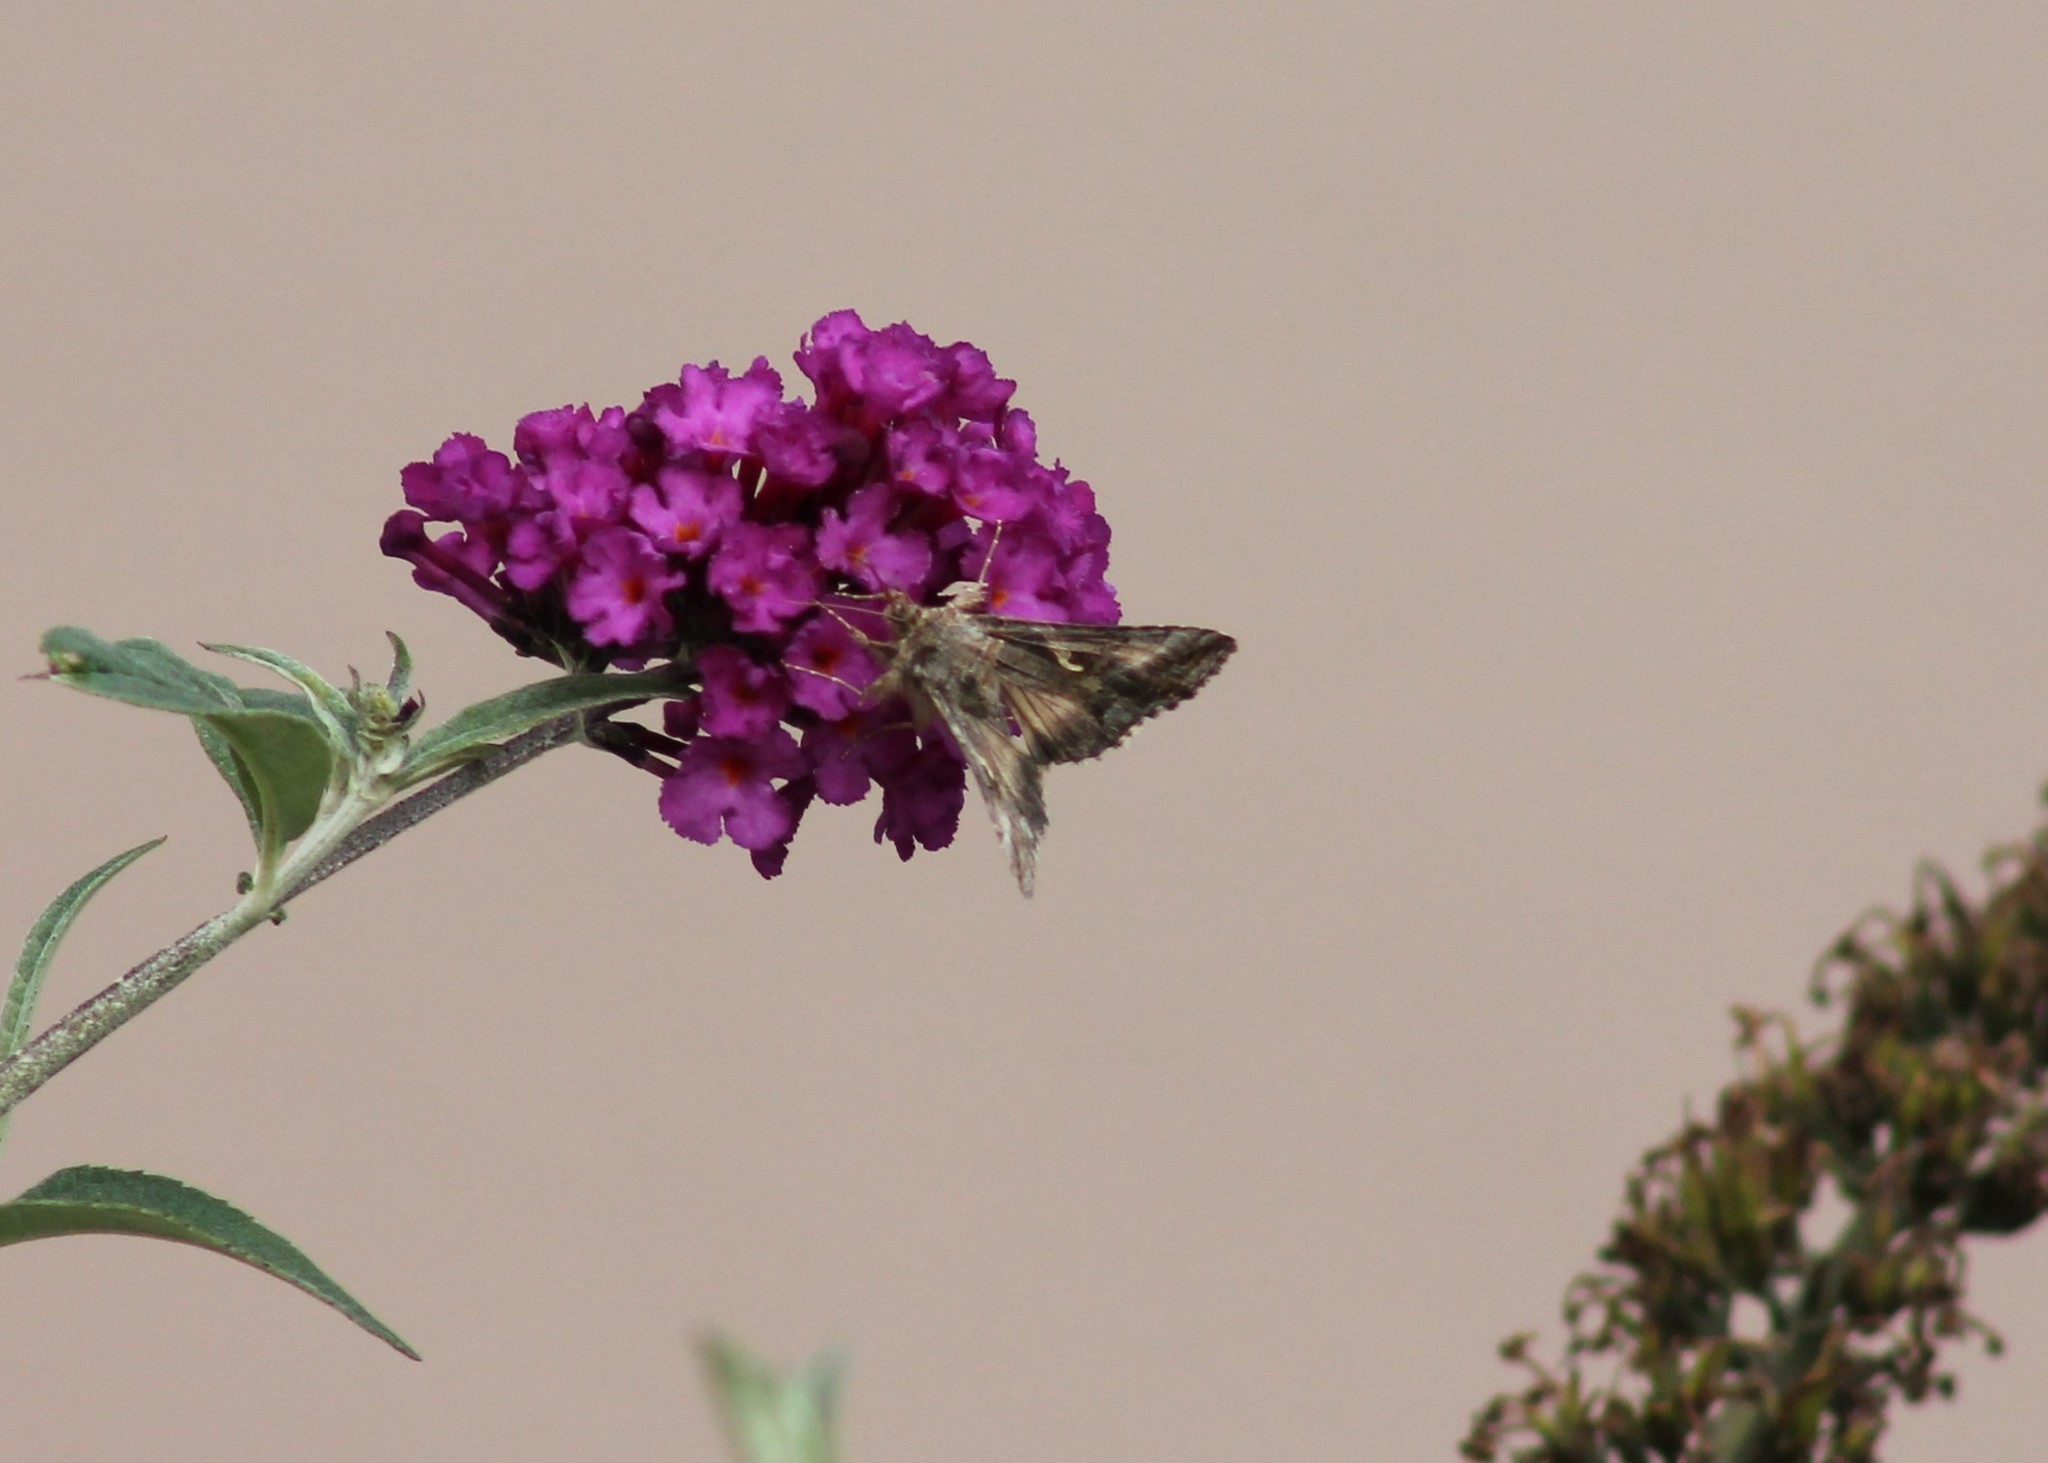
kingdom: Animalia
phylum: Arthropoda
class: Insecta
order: Lepidoptera
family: Noctuidae
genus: Autographa
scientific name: Autographa gamma
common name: Silver y
